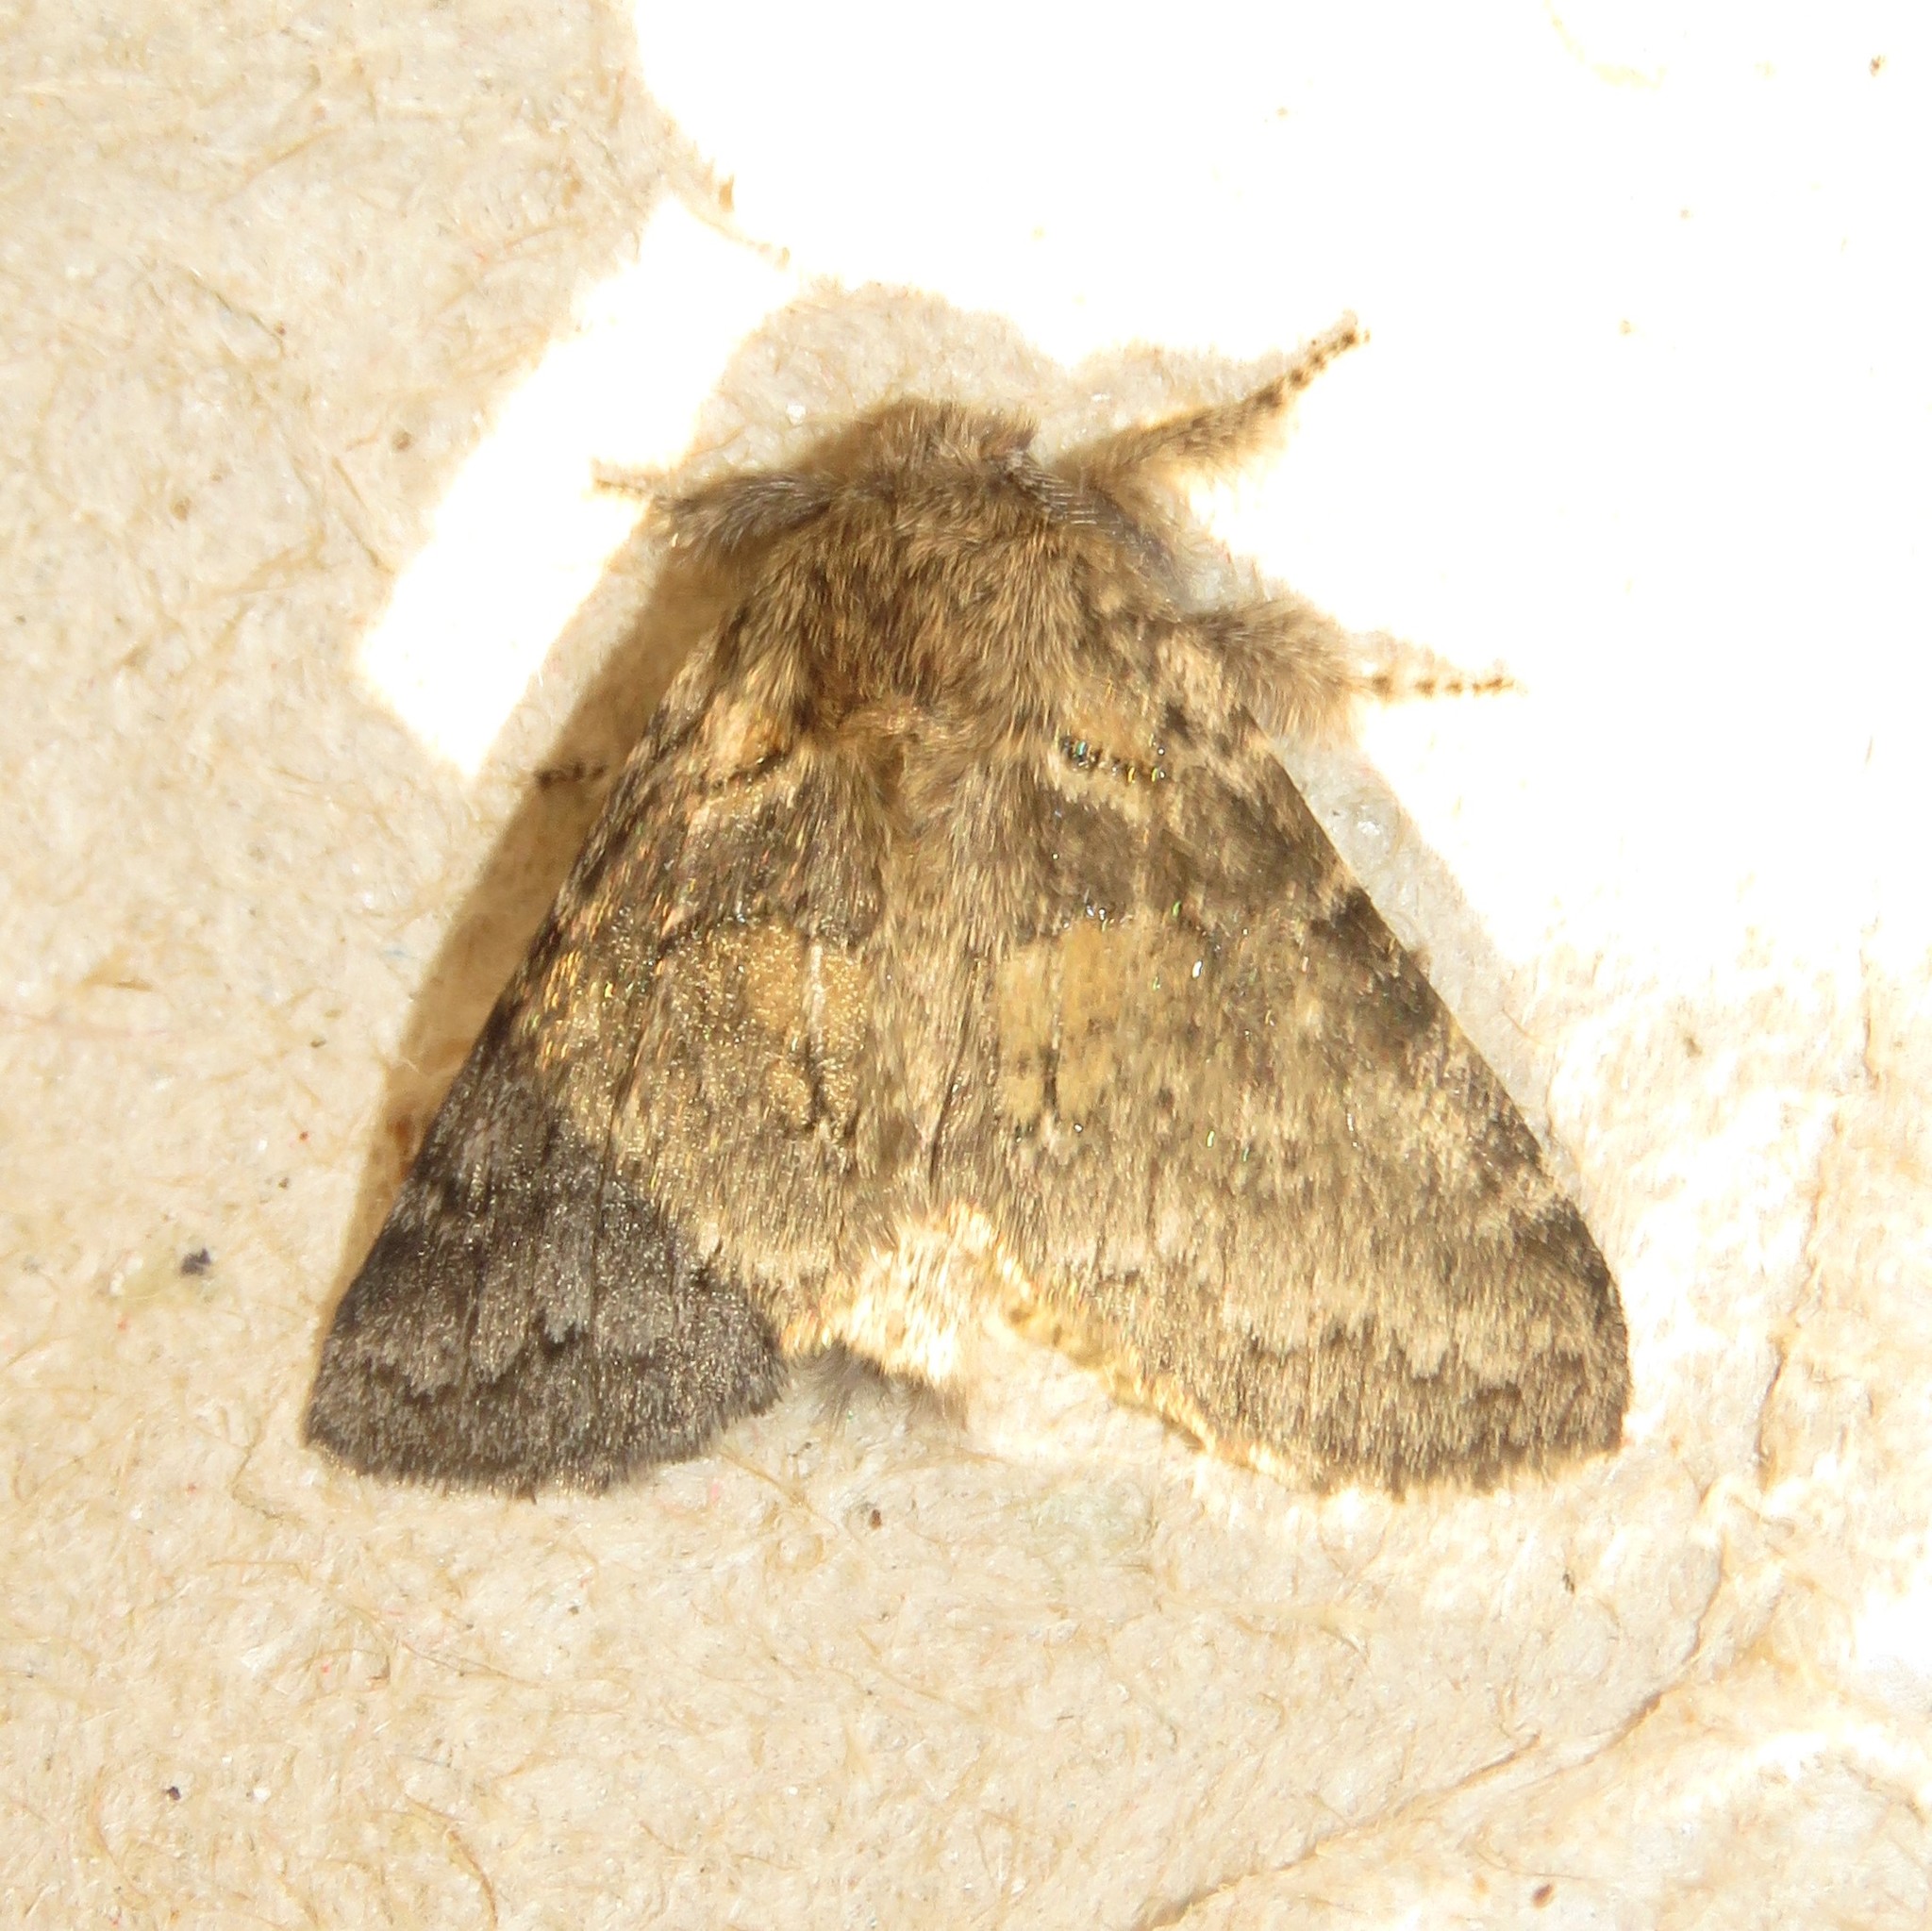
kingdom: Animalia
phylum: Arthropoda
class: Insecta
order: Lepidoptera
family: Notodontidae
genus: Gluphisia
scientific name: Gluphisia septentrionis
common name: Common gluphisia
